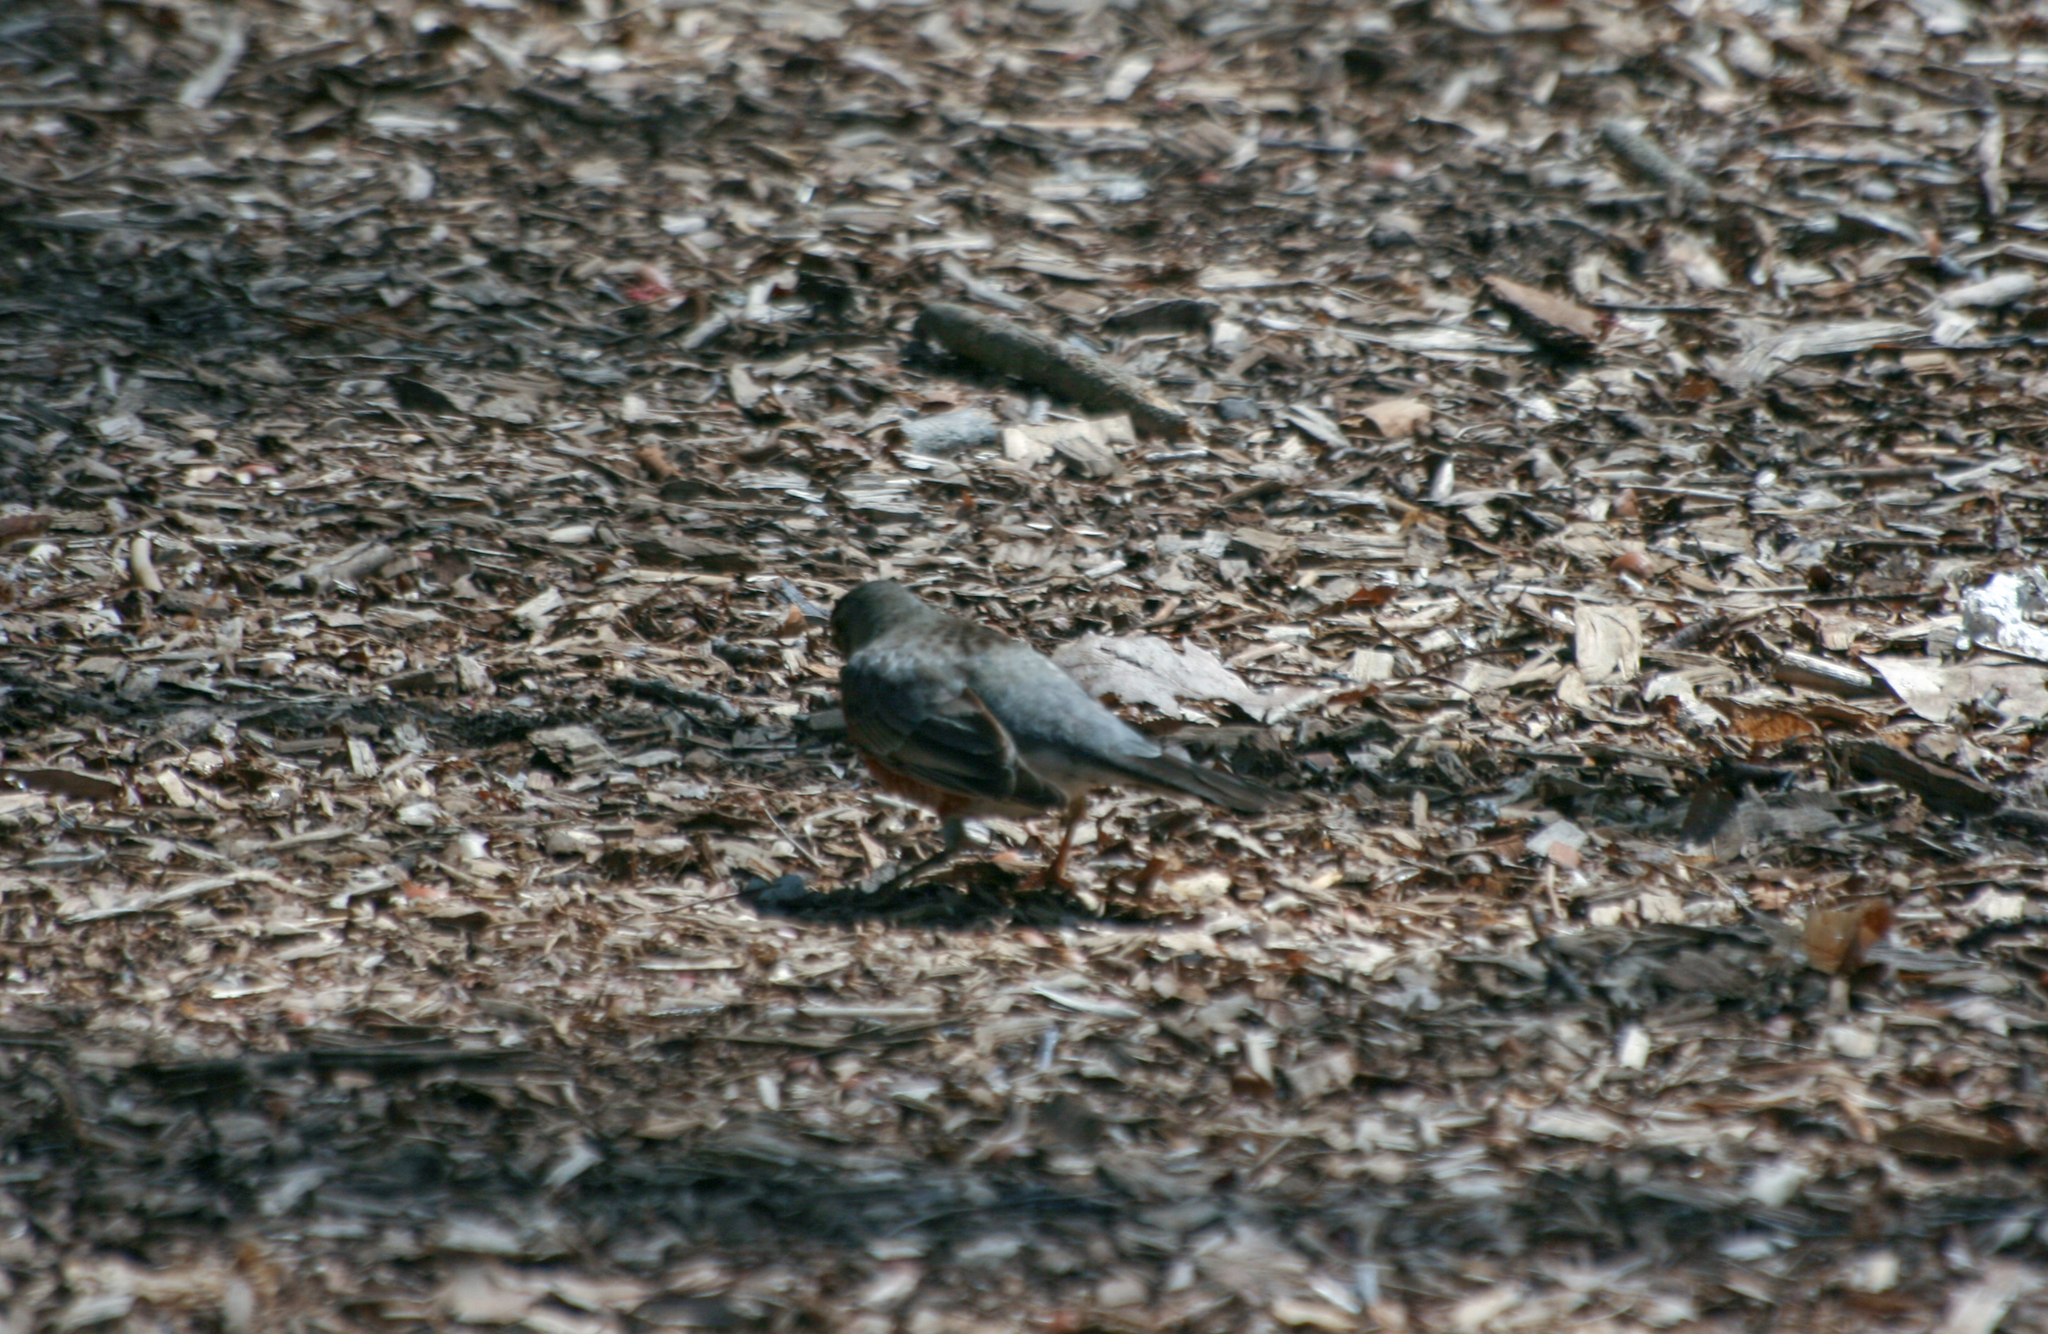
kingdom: Animalia
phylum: Chordata
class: Aves
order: Passeriformes
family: Turdidae
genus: Turdus
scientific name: Turdus migratorius
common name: American robin
